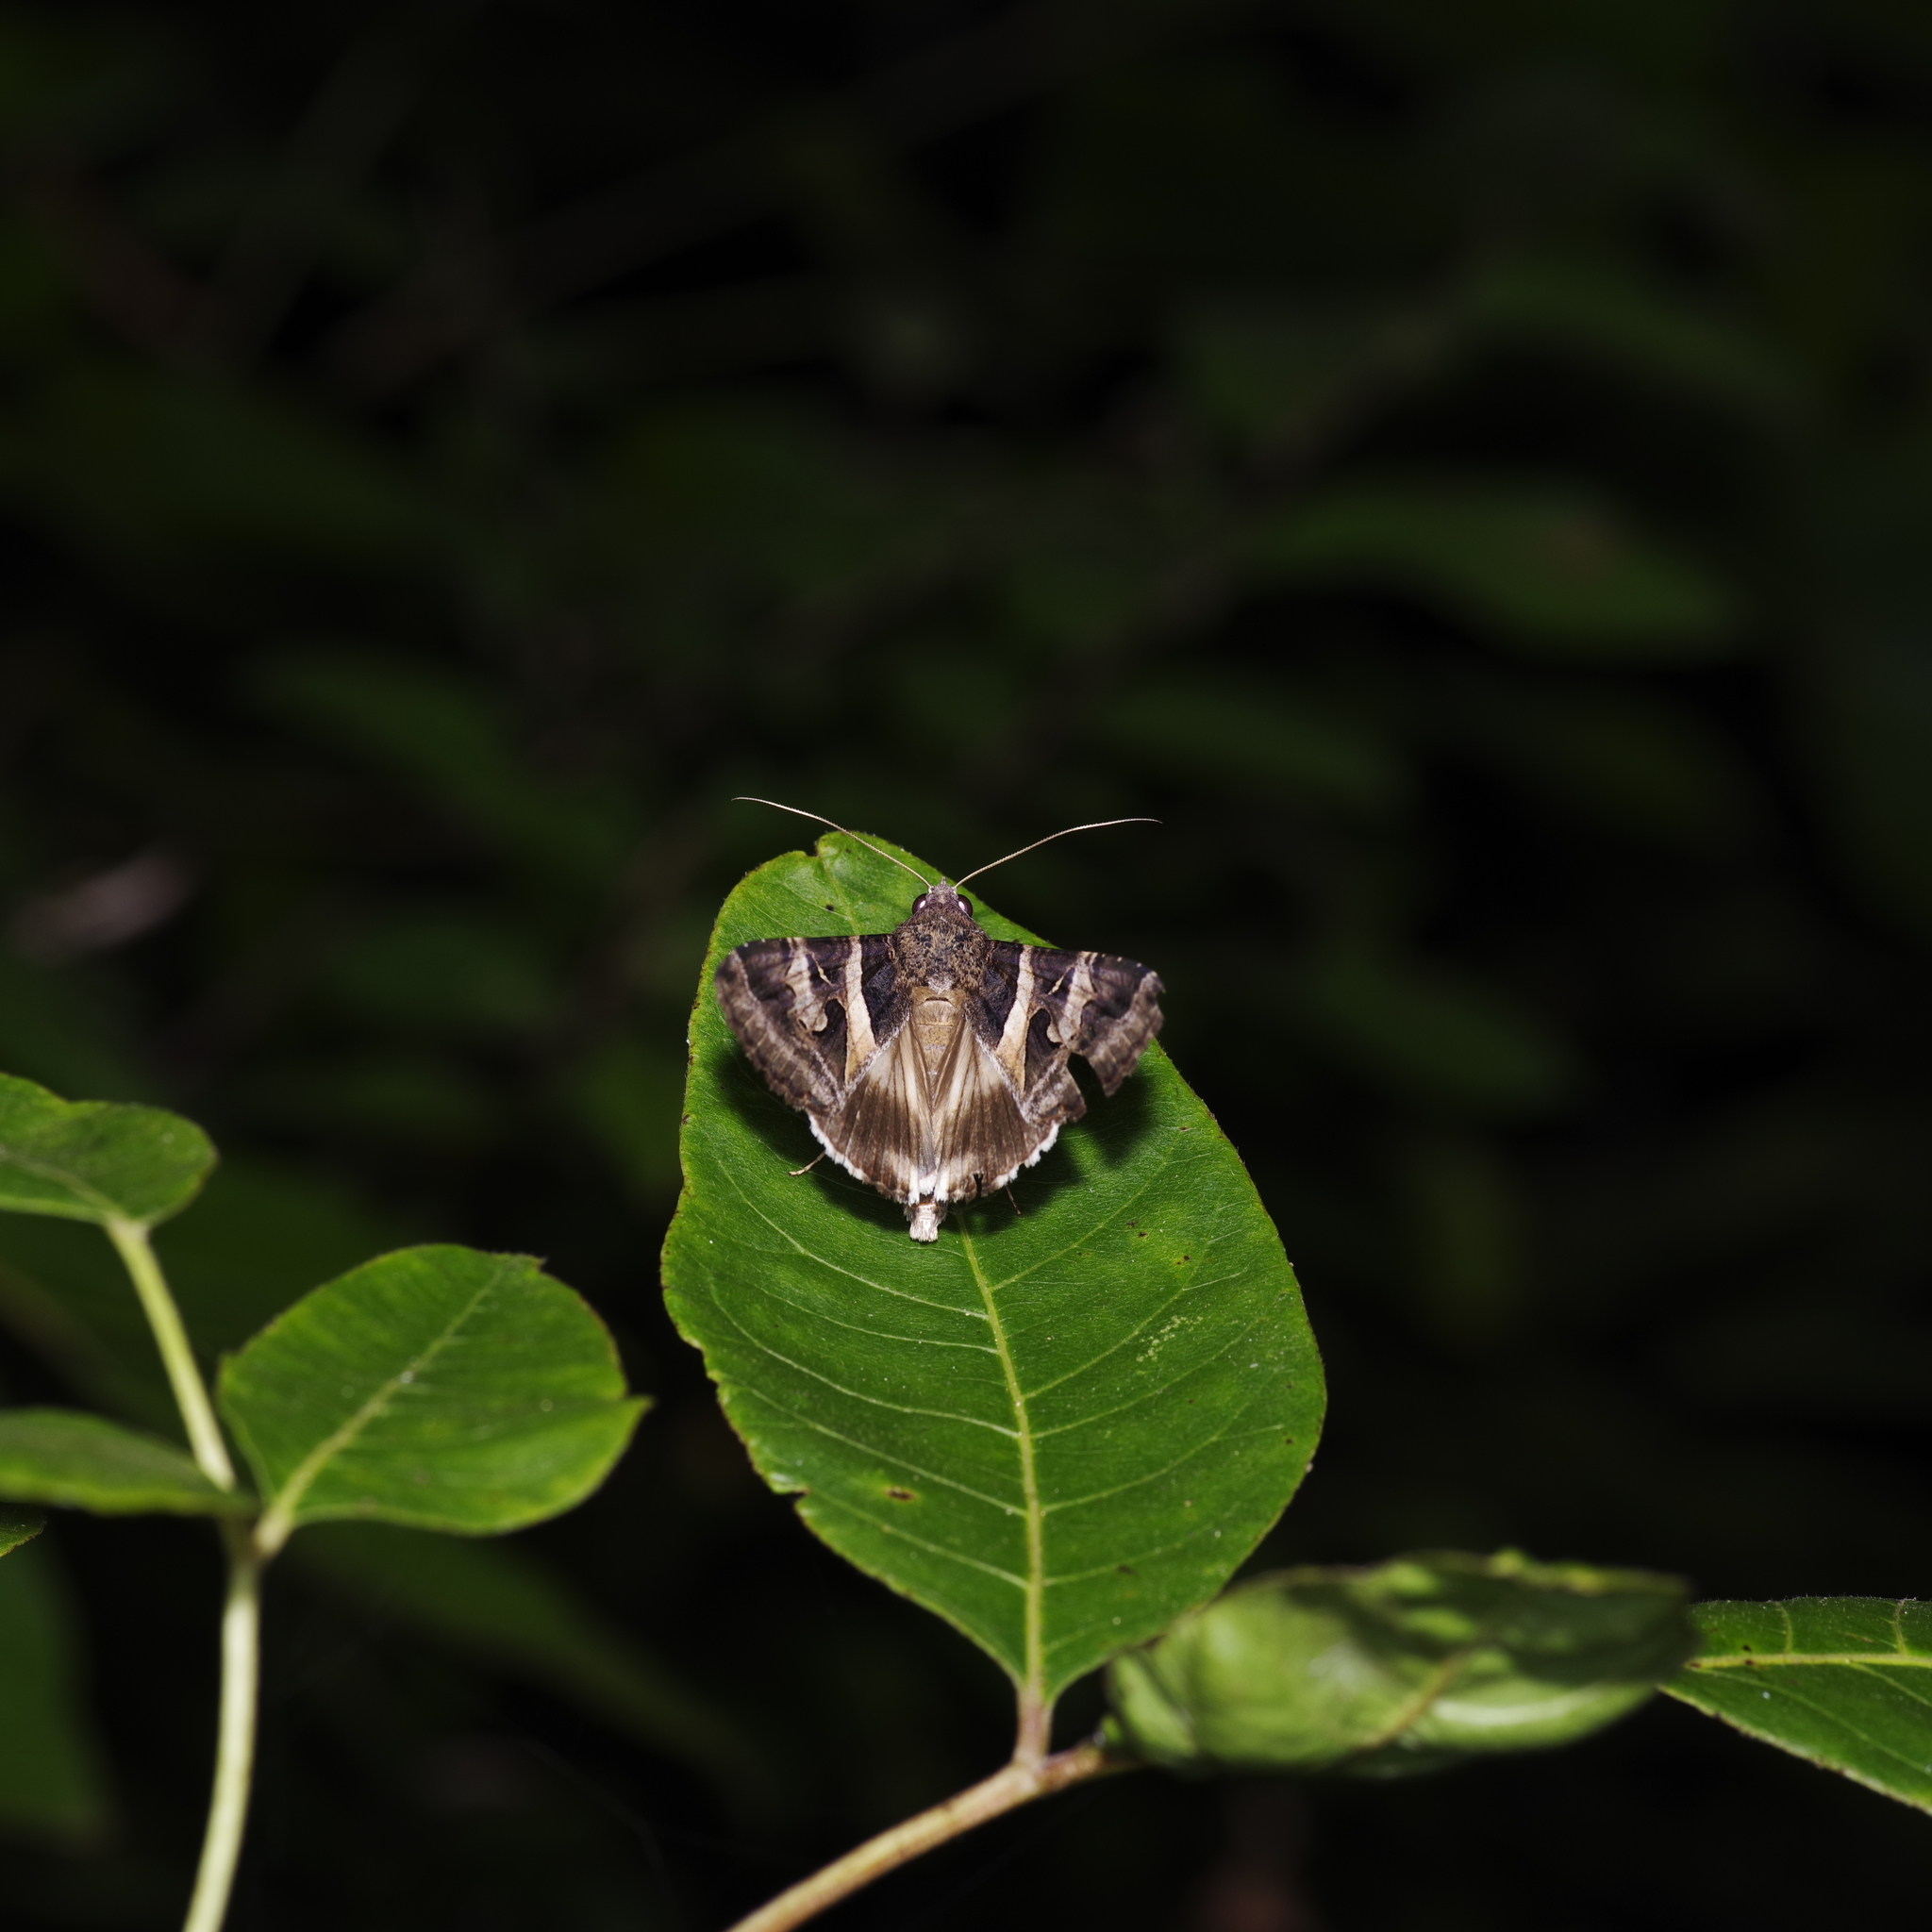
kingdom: Animalia
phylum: Arthropoda
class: Insecta
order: Lepidoptera
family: Erebidae
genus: Melipotis
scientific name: Melipotis indomita
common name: Moth
